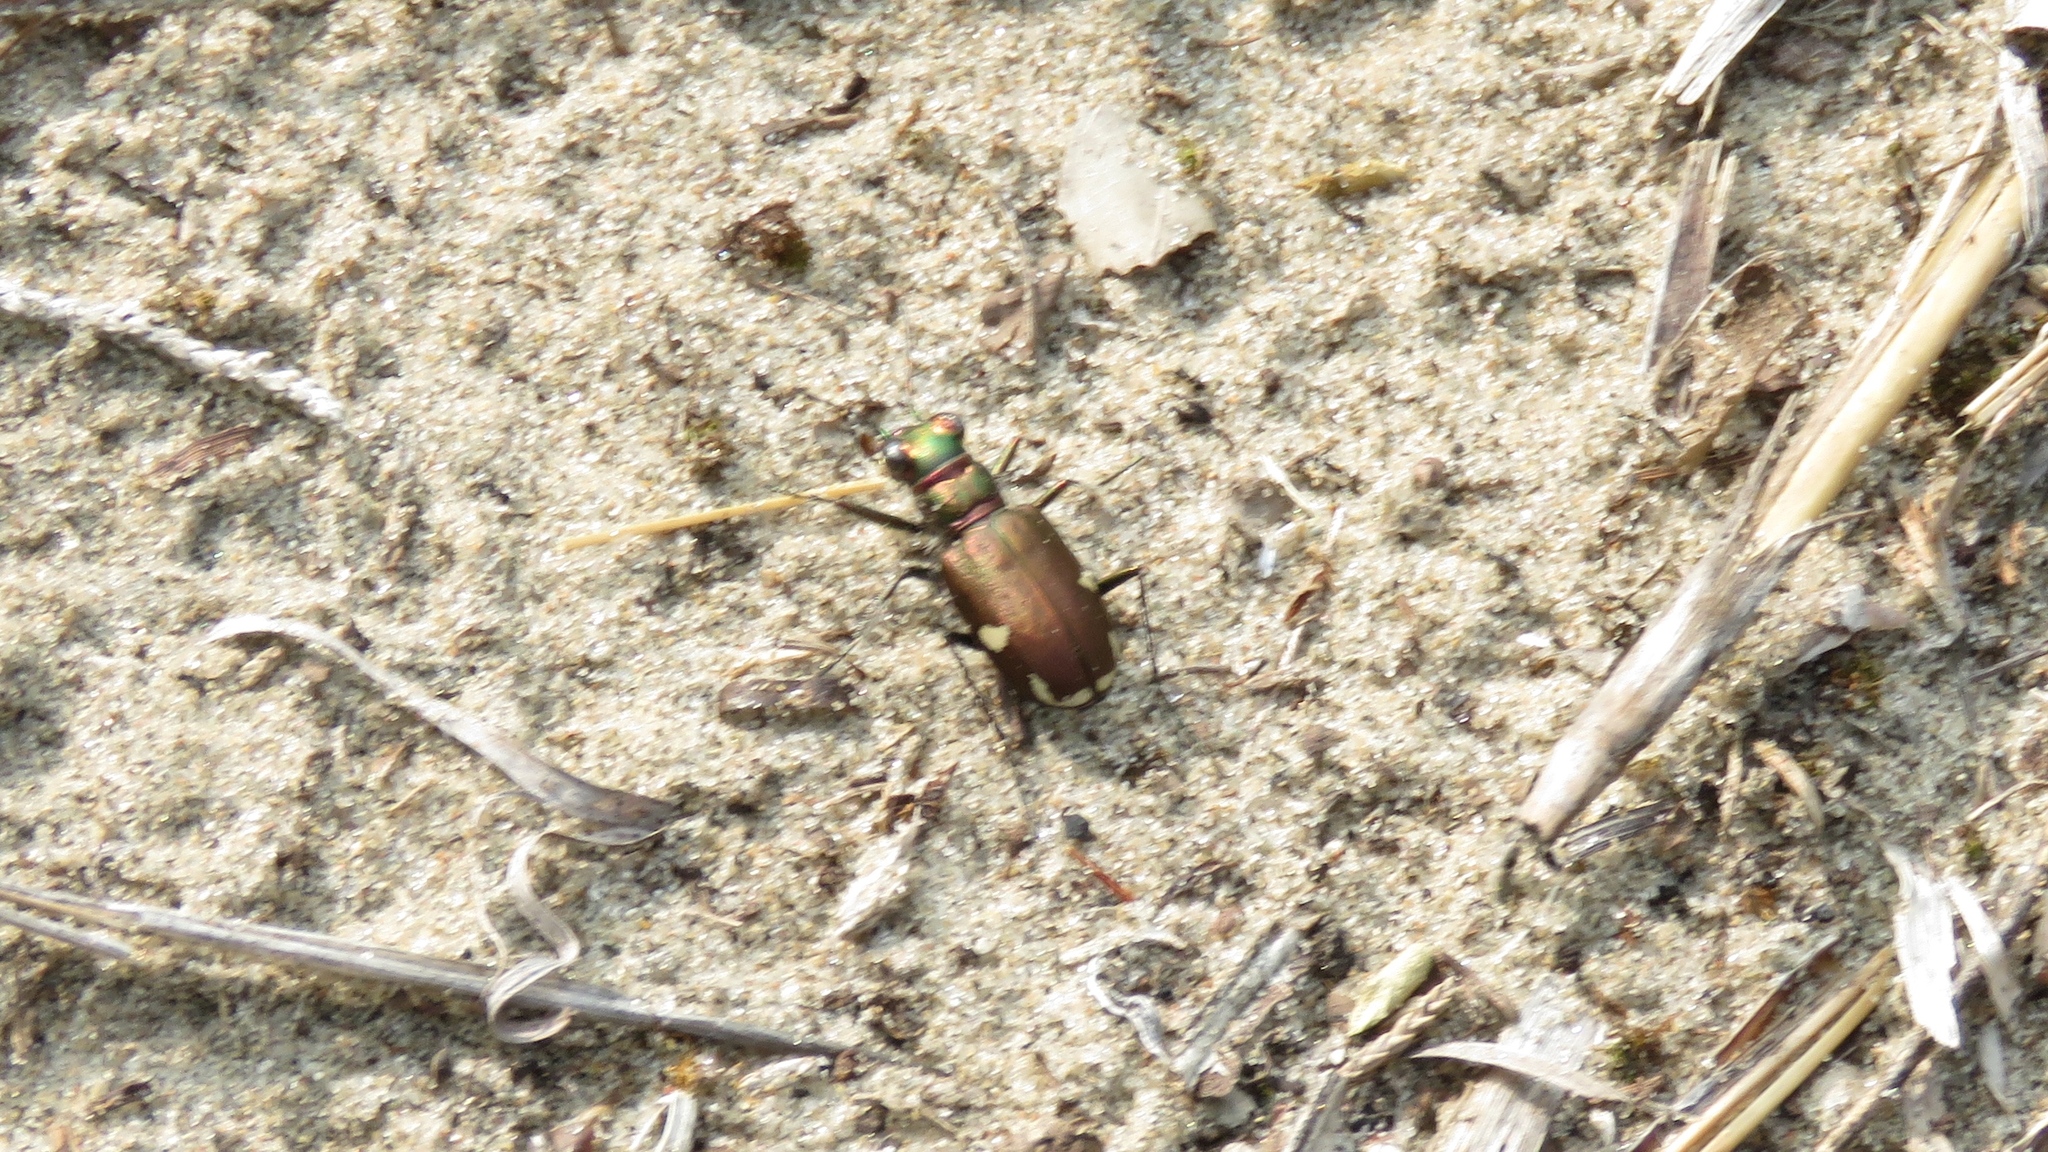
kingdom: Animalia
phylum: Arthropoda
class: Insecta
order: Coleoptera
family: Carabidae
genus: Cicindela
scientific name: Cicindela scutellaris
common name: Festive tiger beetle
